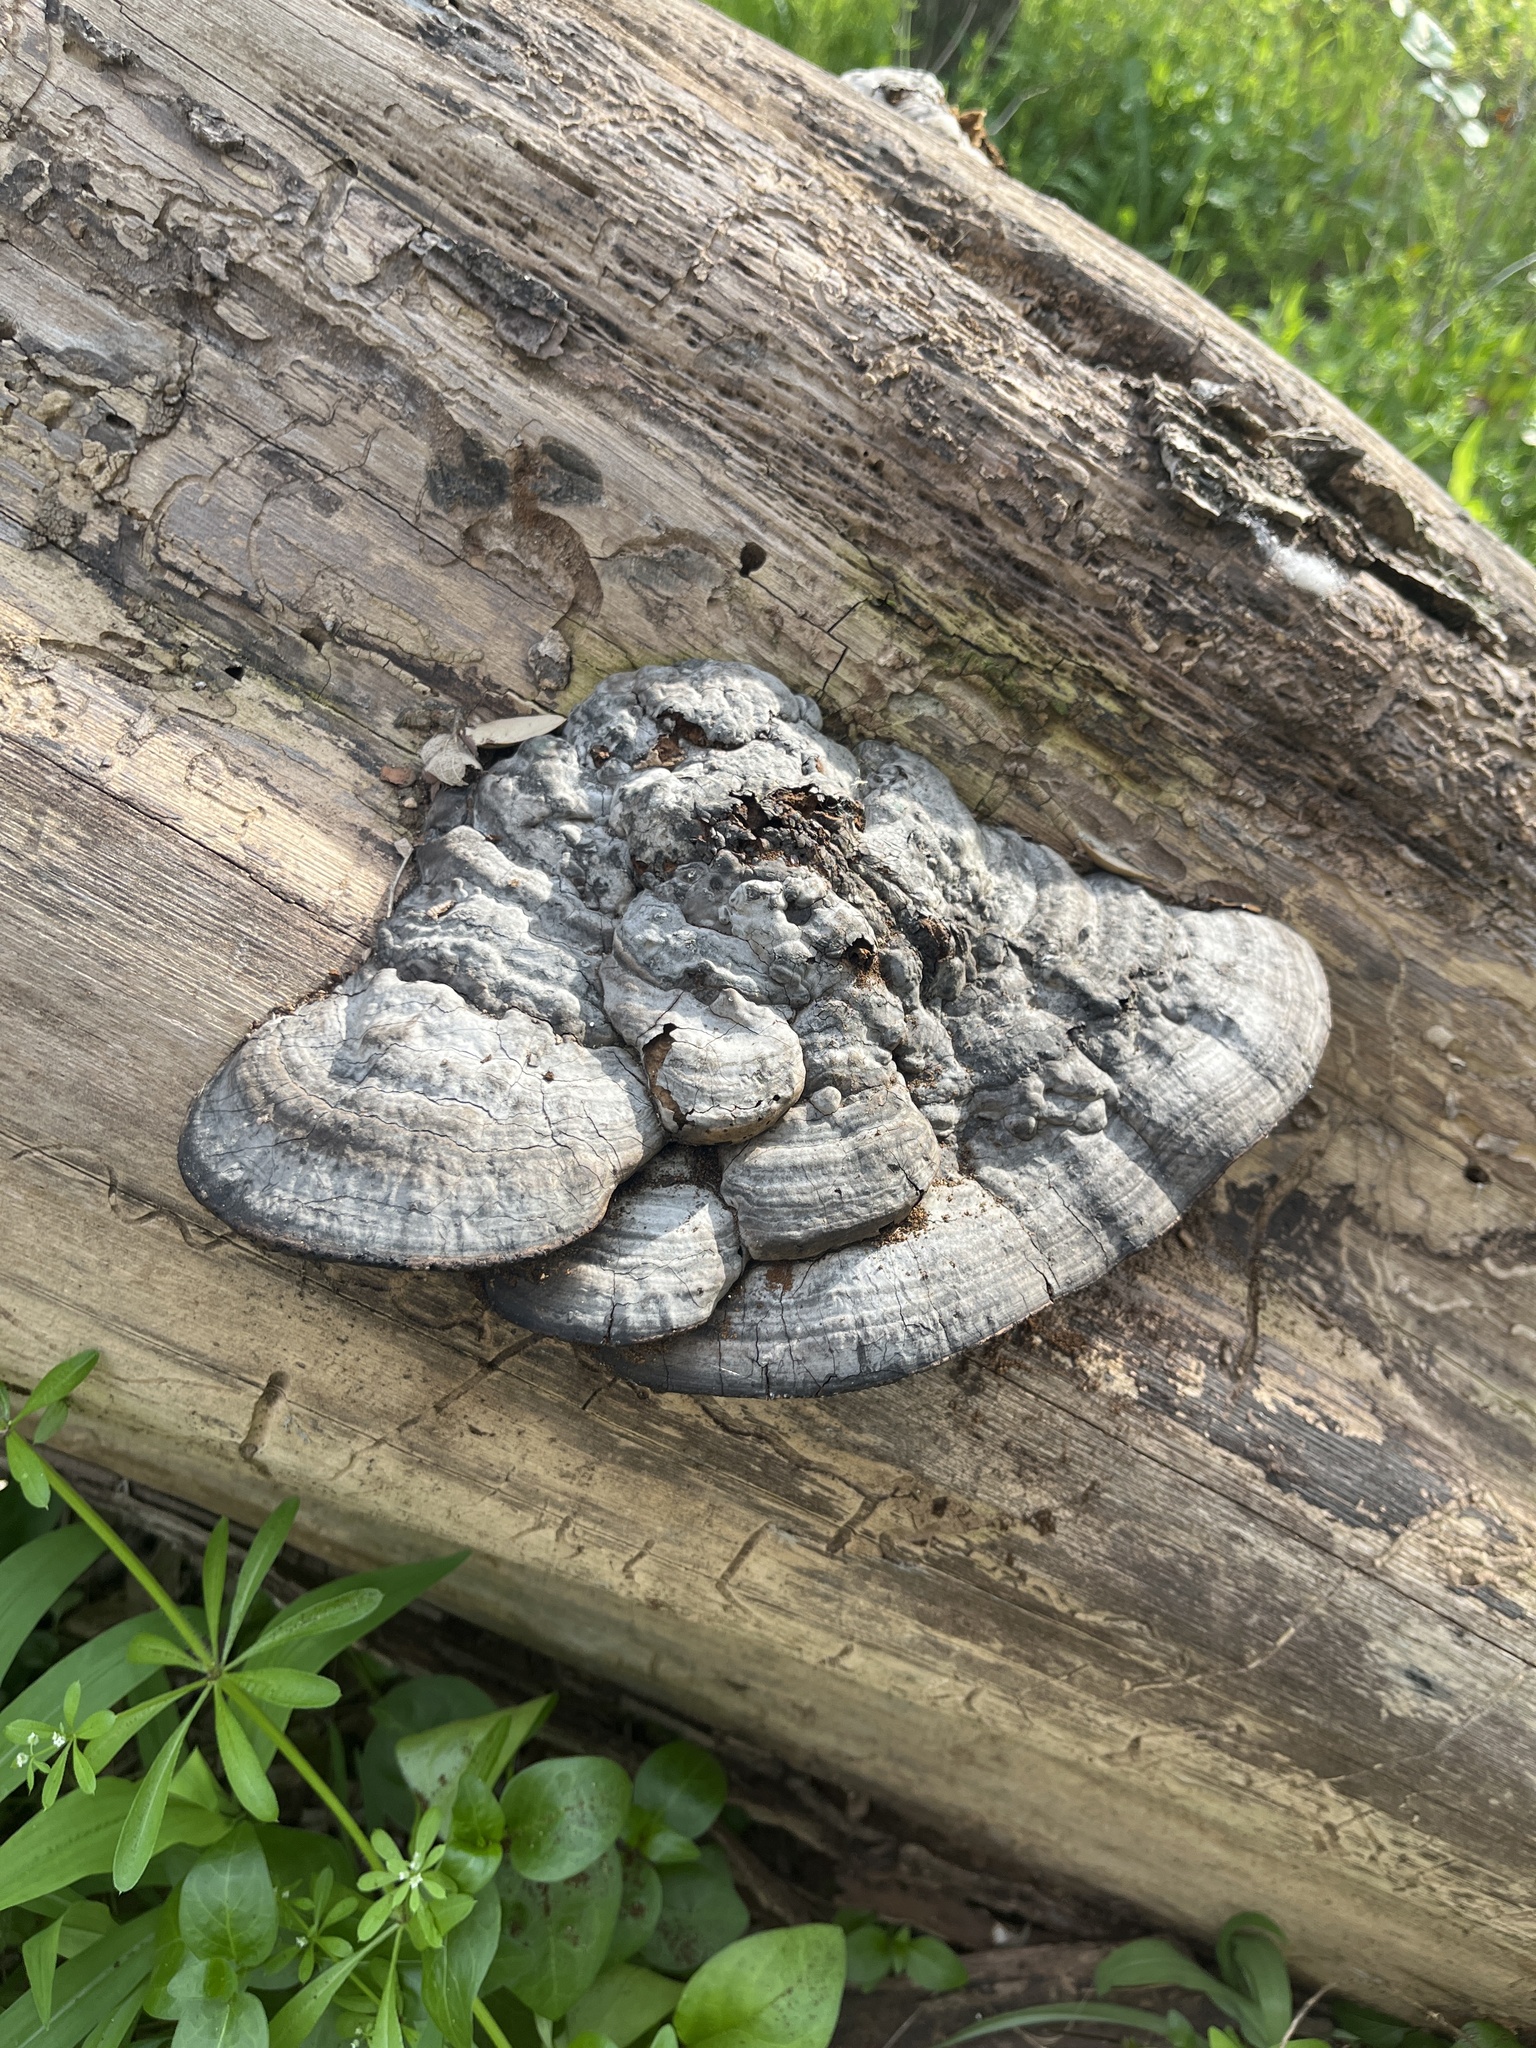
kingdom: Fungi
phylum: Basidiomycota
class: Agaricomycetes
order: Polyporales
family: Polyporaceae
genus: Fomes
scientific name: Fomes fasciatus
